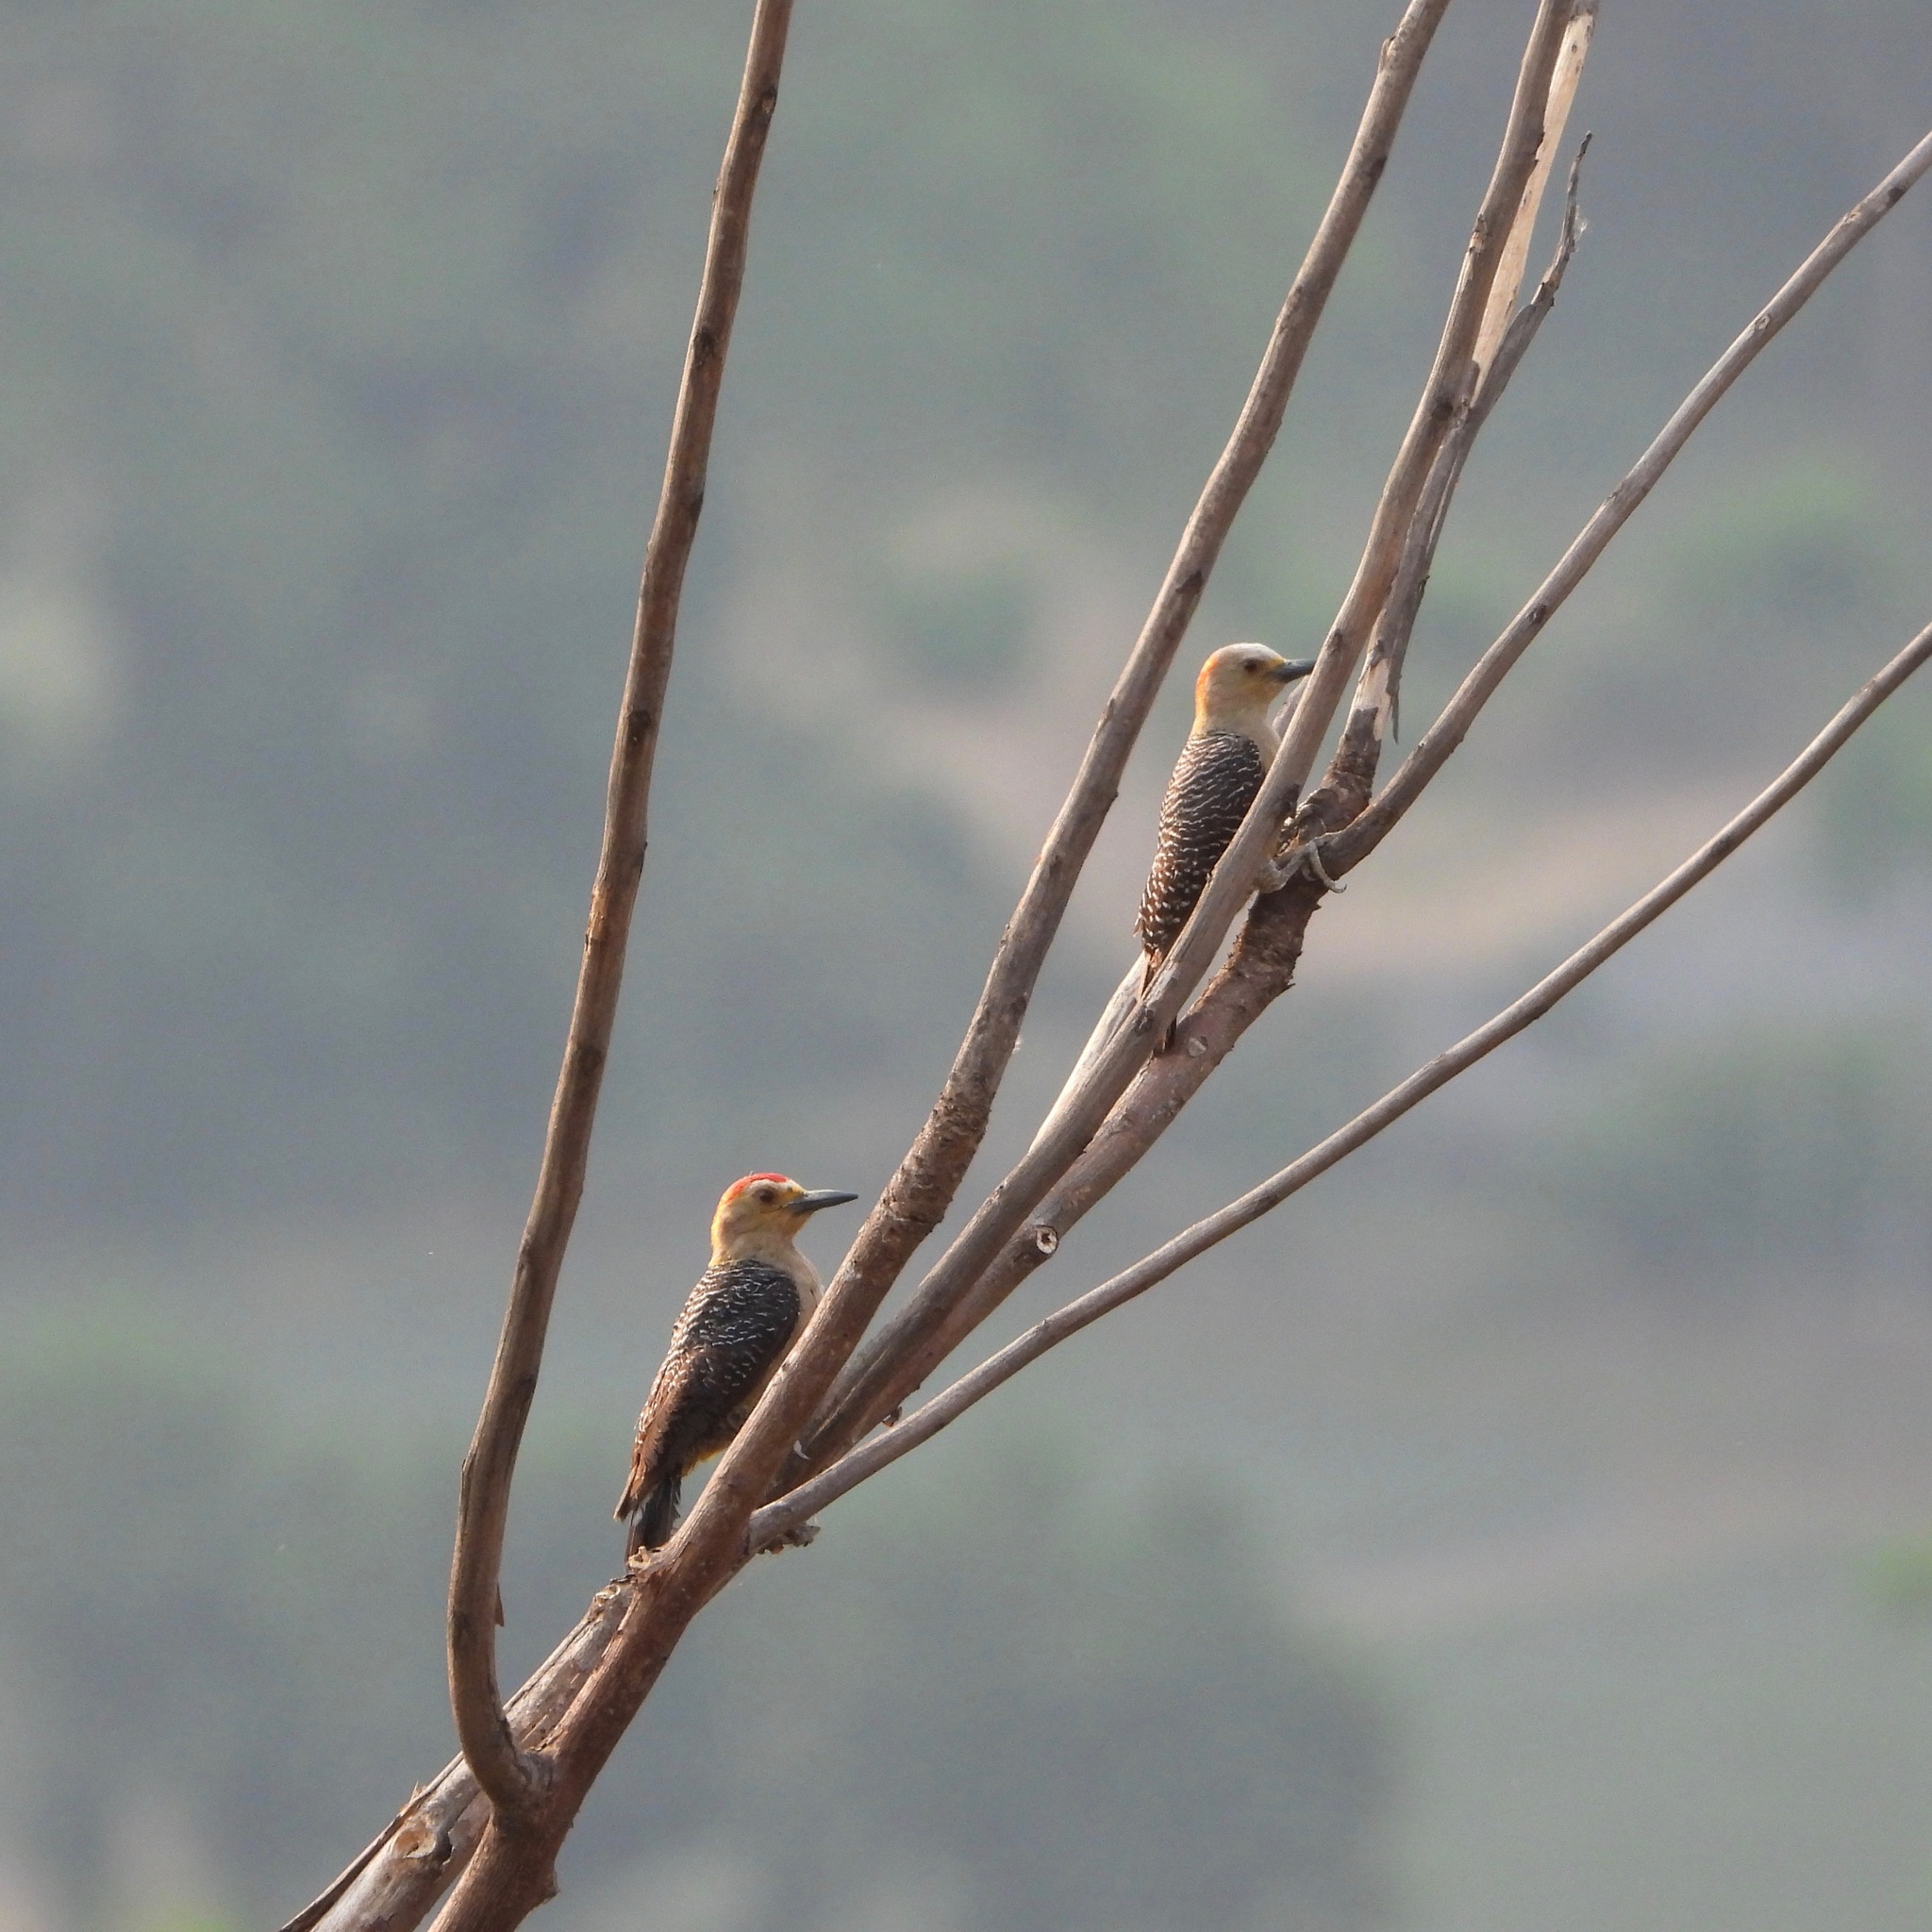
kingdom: Animalia
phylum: Chordata
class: Aves
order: Piciformes
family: Picidae
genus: Melanerpes
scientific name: Melanerpes aurifrons
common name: Golden-fronted woodpecker
